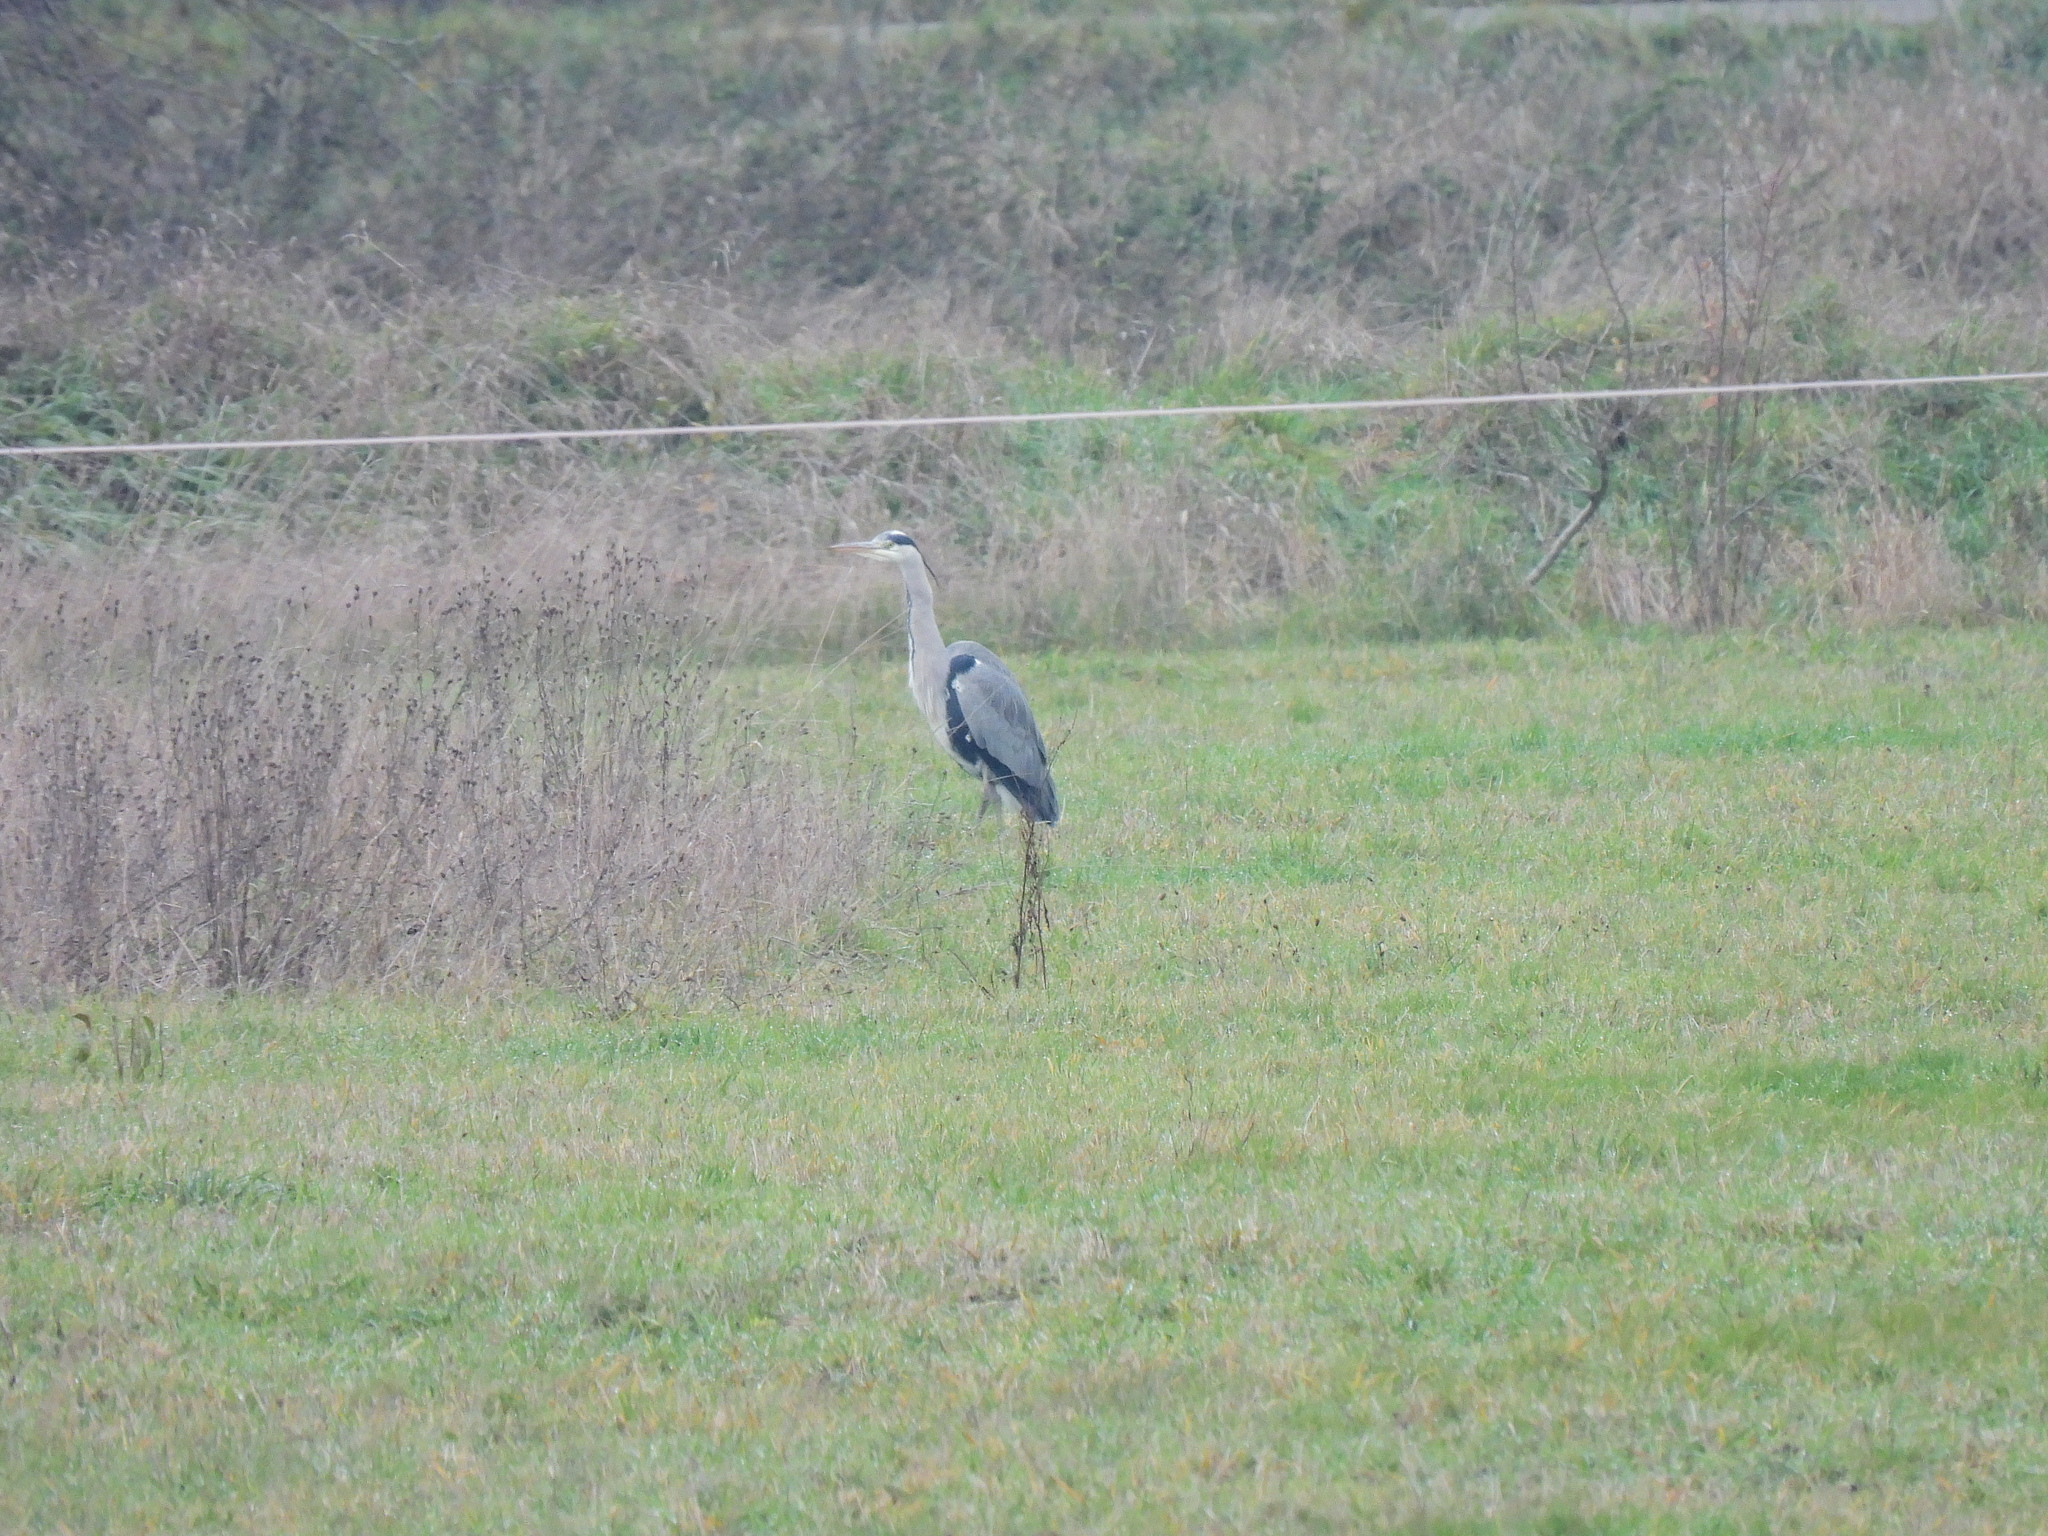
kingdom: Animalia
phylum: Chordata
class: Aves
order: Pelecaniformes
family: Ardeidae
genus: Ardea
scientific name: Ardea cinerea
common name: Grey heron
